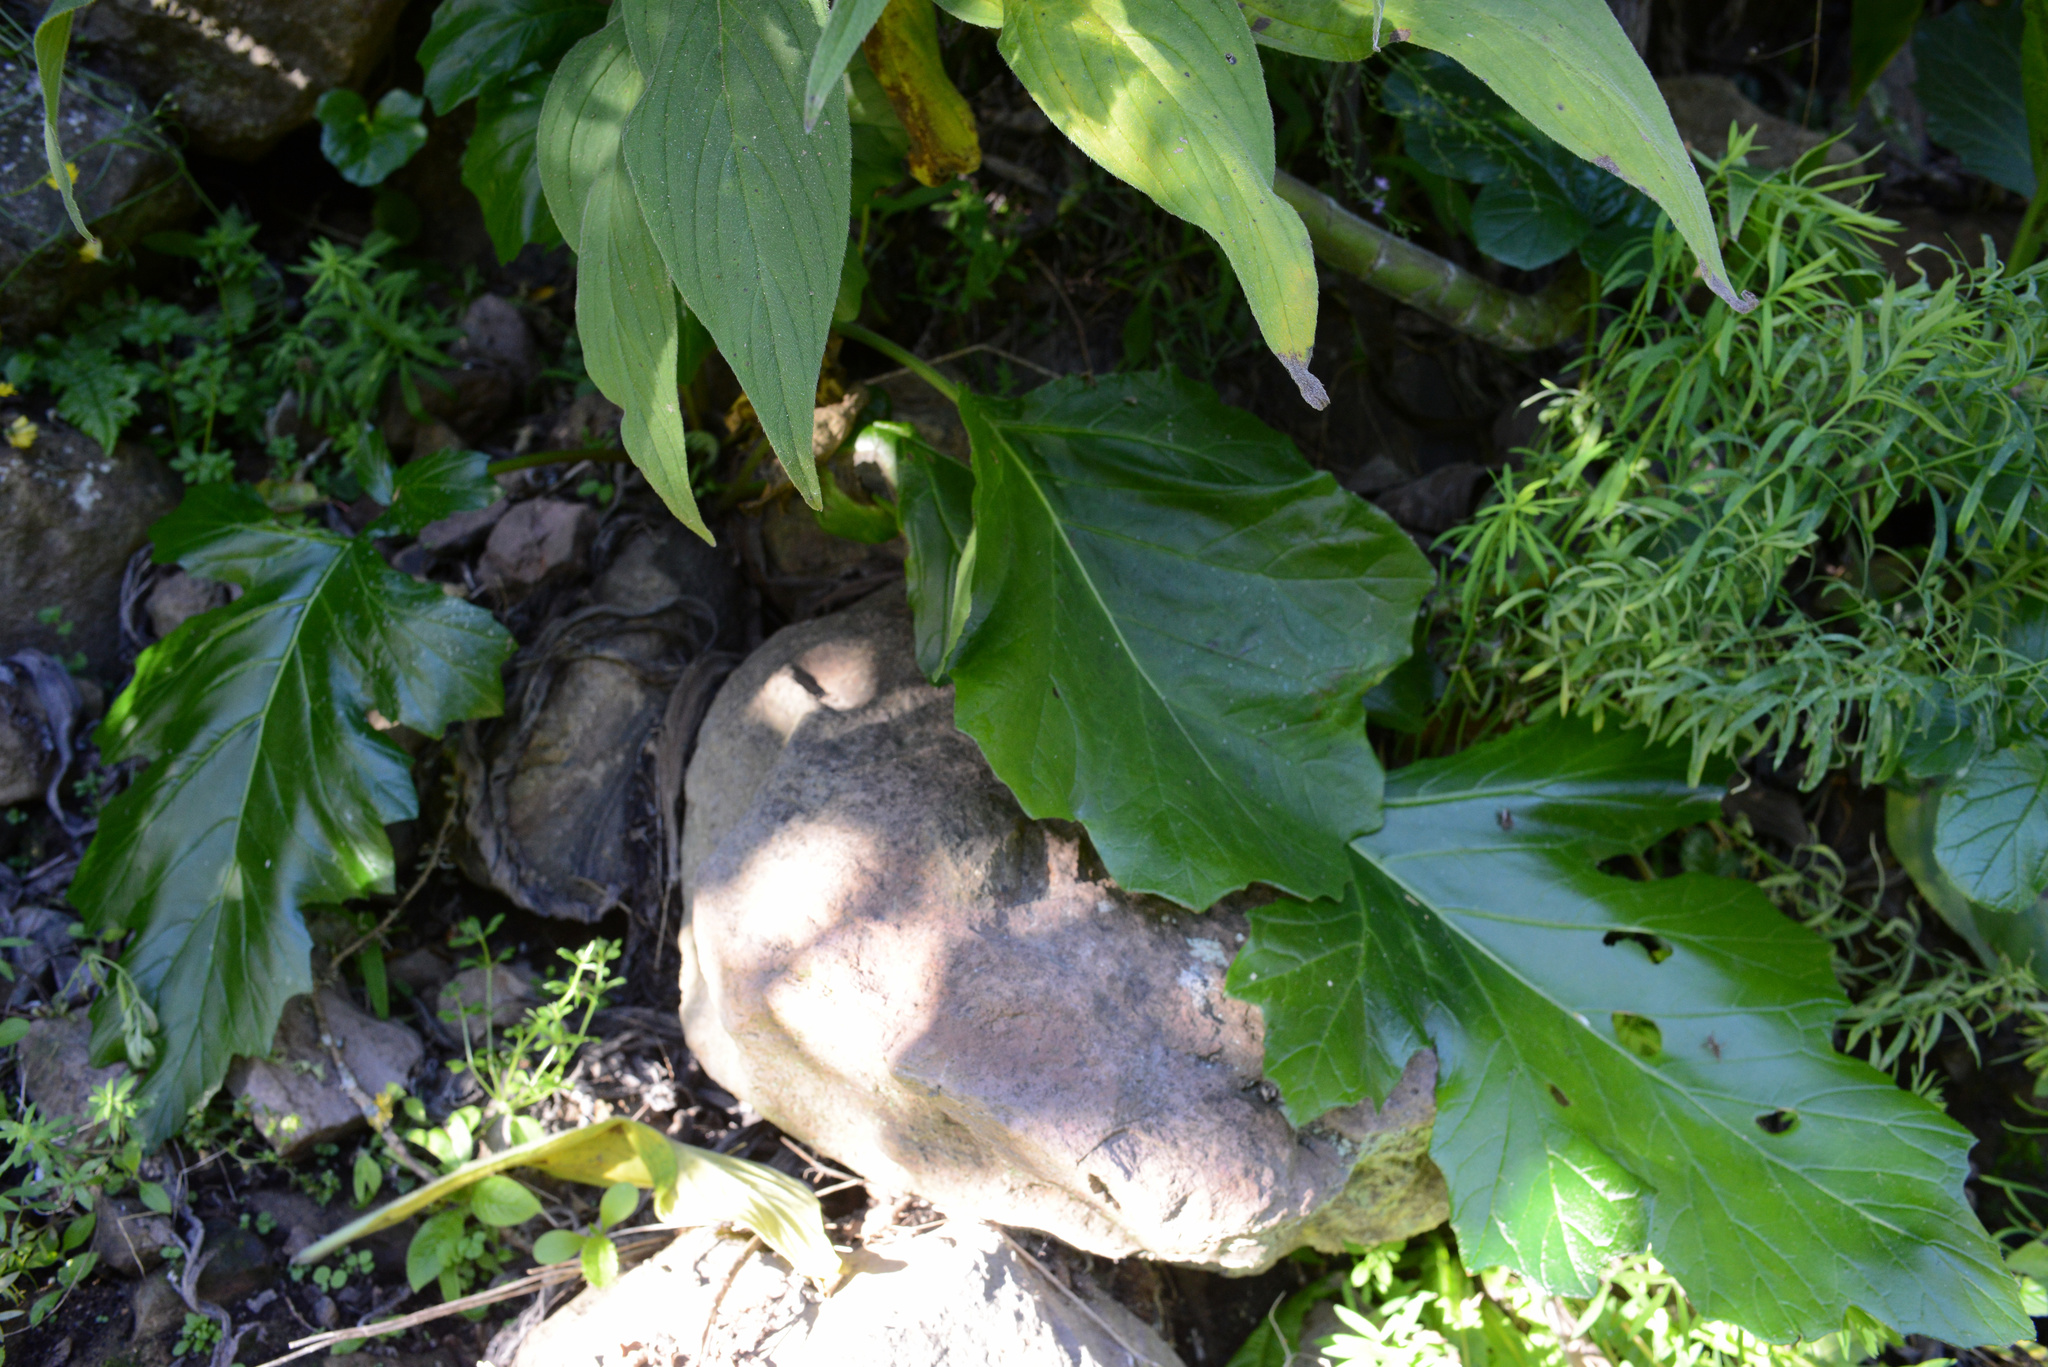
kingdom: Plantae
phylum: Tracheophyta
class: Magnoliopsida
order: Lamiales
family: Acanthaceae
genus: Acanthus
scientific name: Acanthus mollis
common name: Bear's-breech
